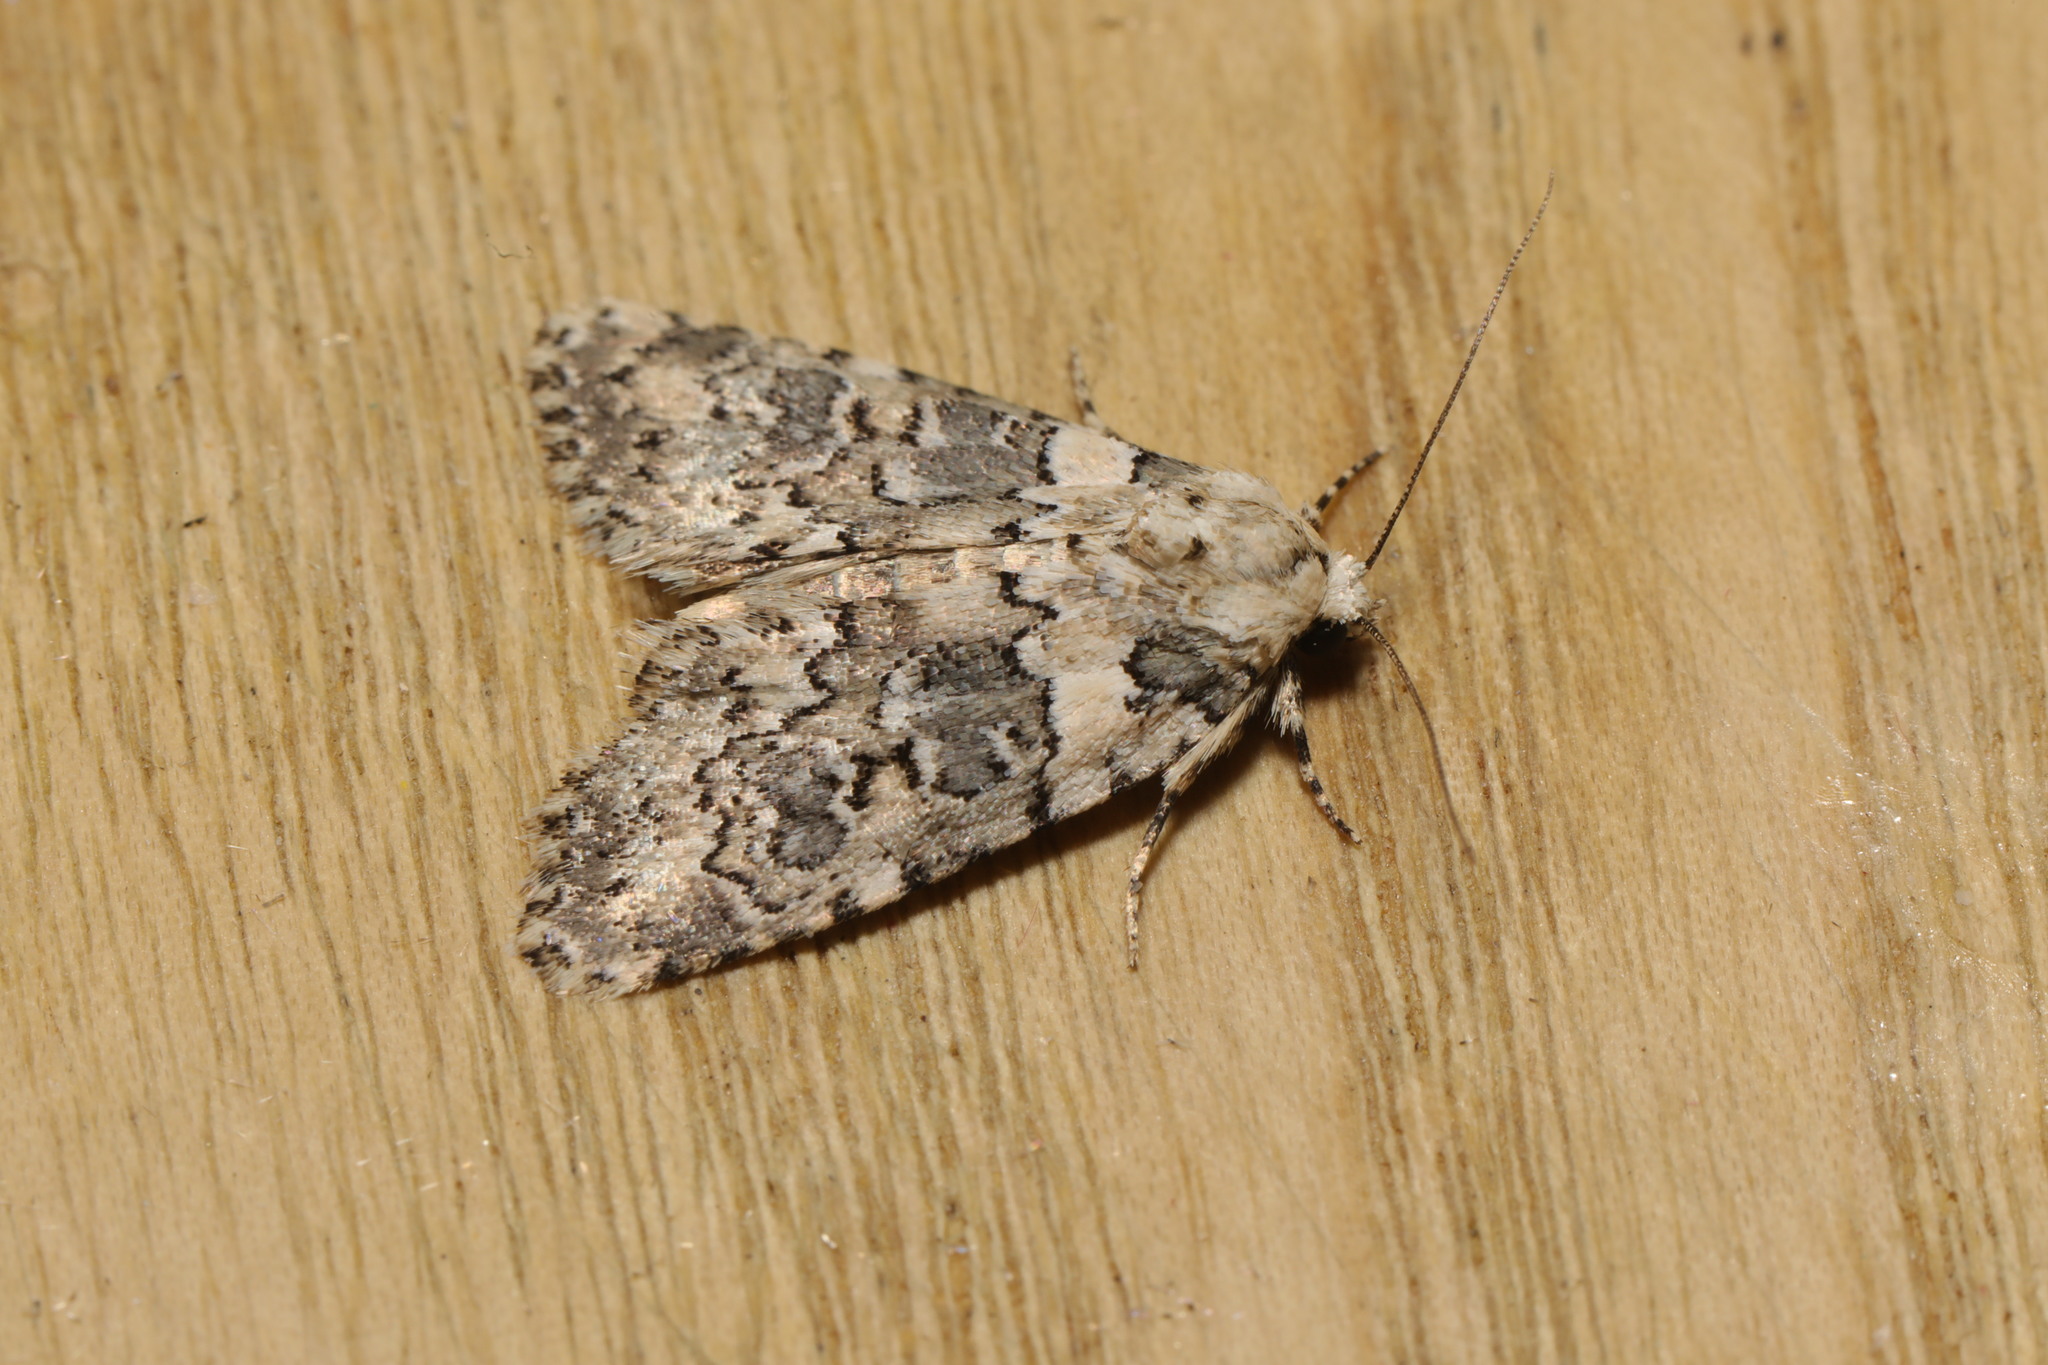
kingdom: Animalia
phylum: Arthropoda
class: Insecta
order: Lepidoptera
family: Noctuidae
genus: Bryophila
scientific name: Bryophila domestica
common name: Marbled beauty
